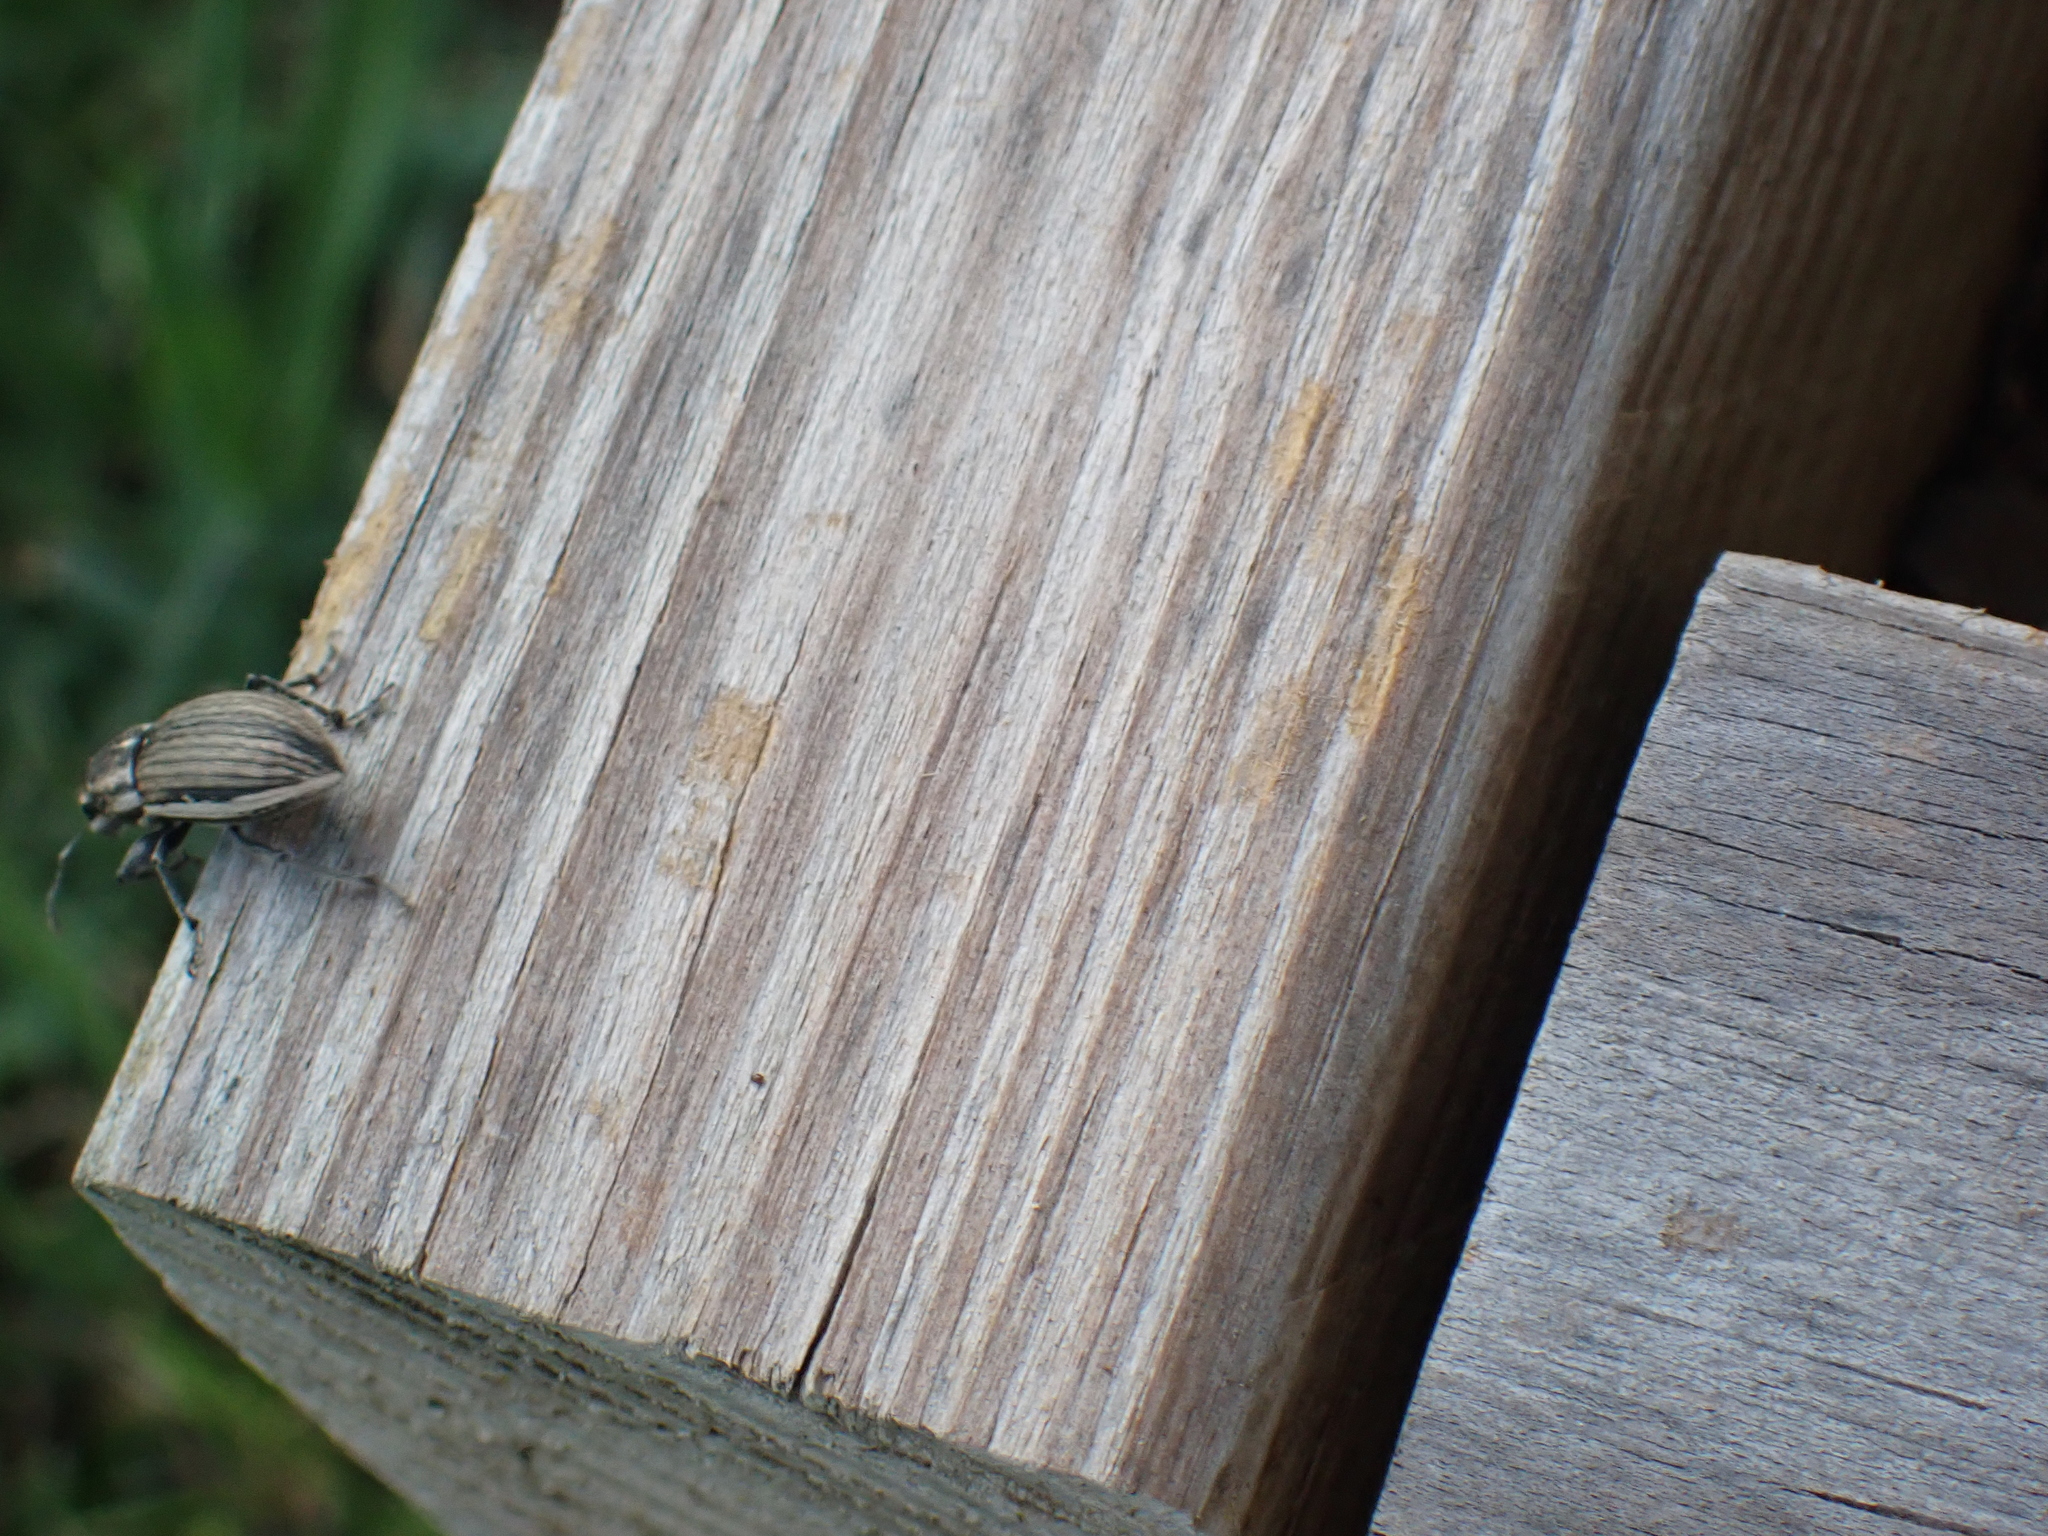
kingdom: Animalia
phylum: Arthropoda
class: Insecta
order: Coleoptera
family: Curculionidae
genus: Naupactus
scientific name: Naupactus leucoloma
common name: Whitefringed beetle
